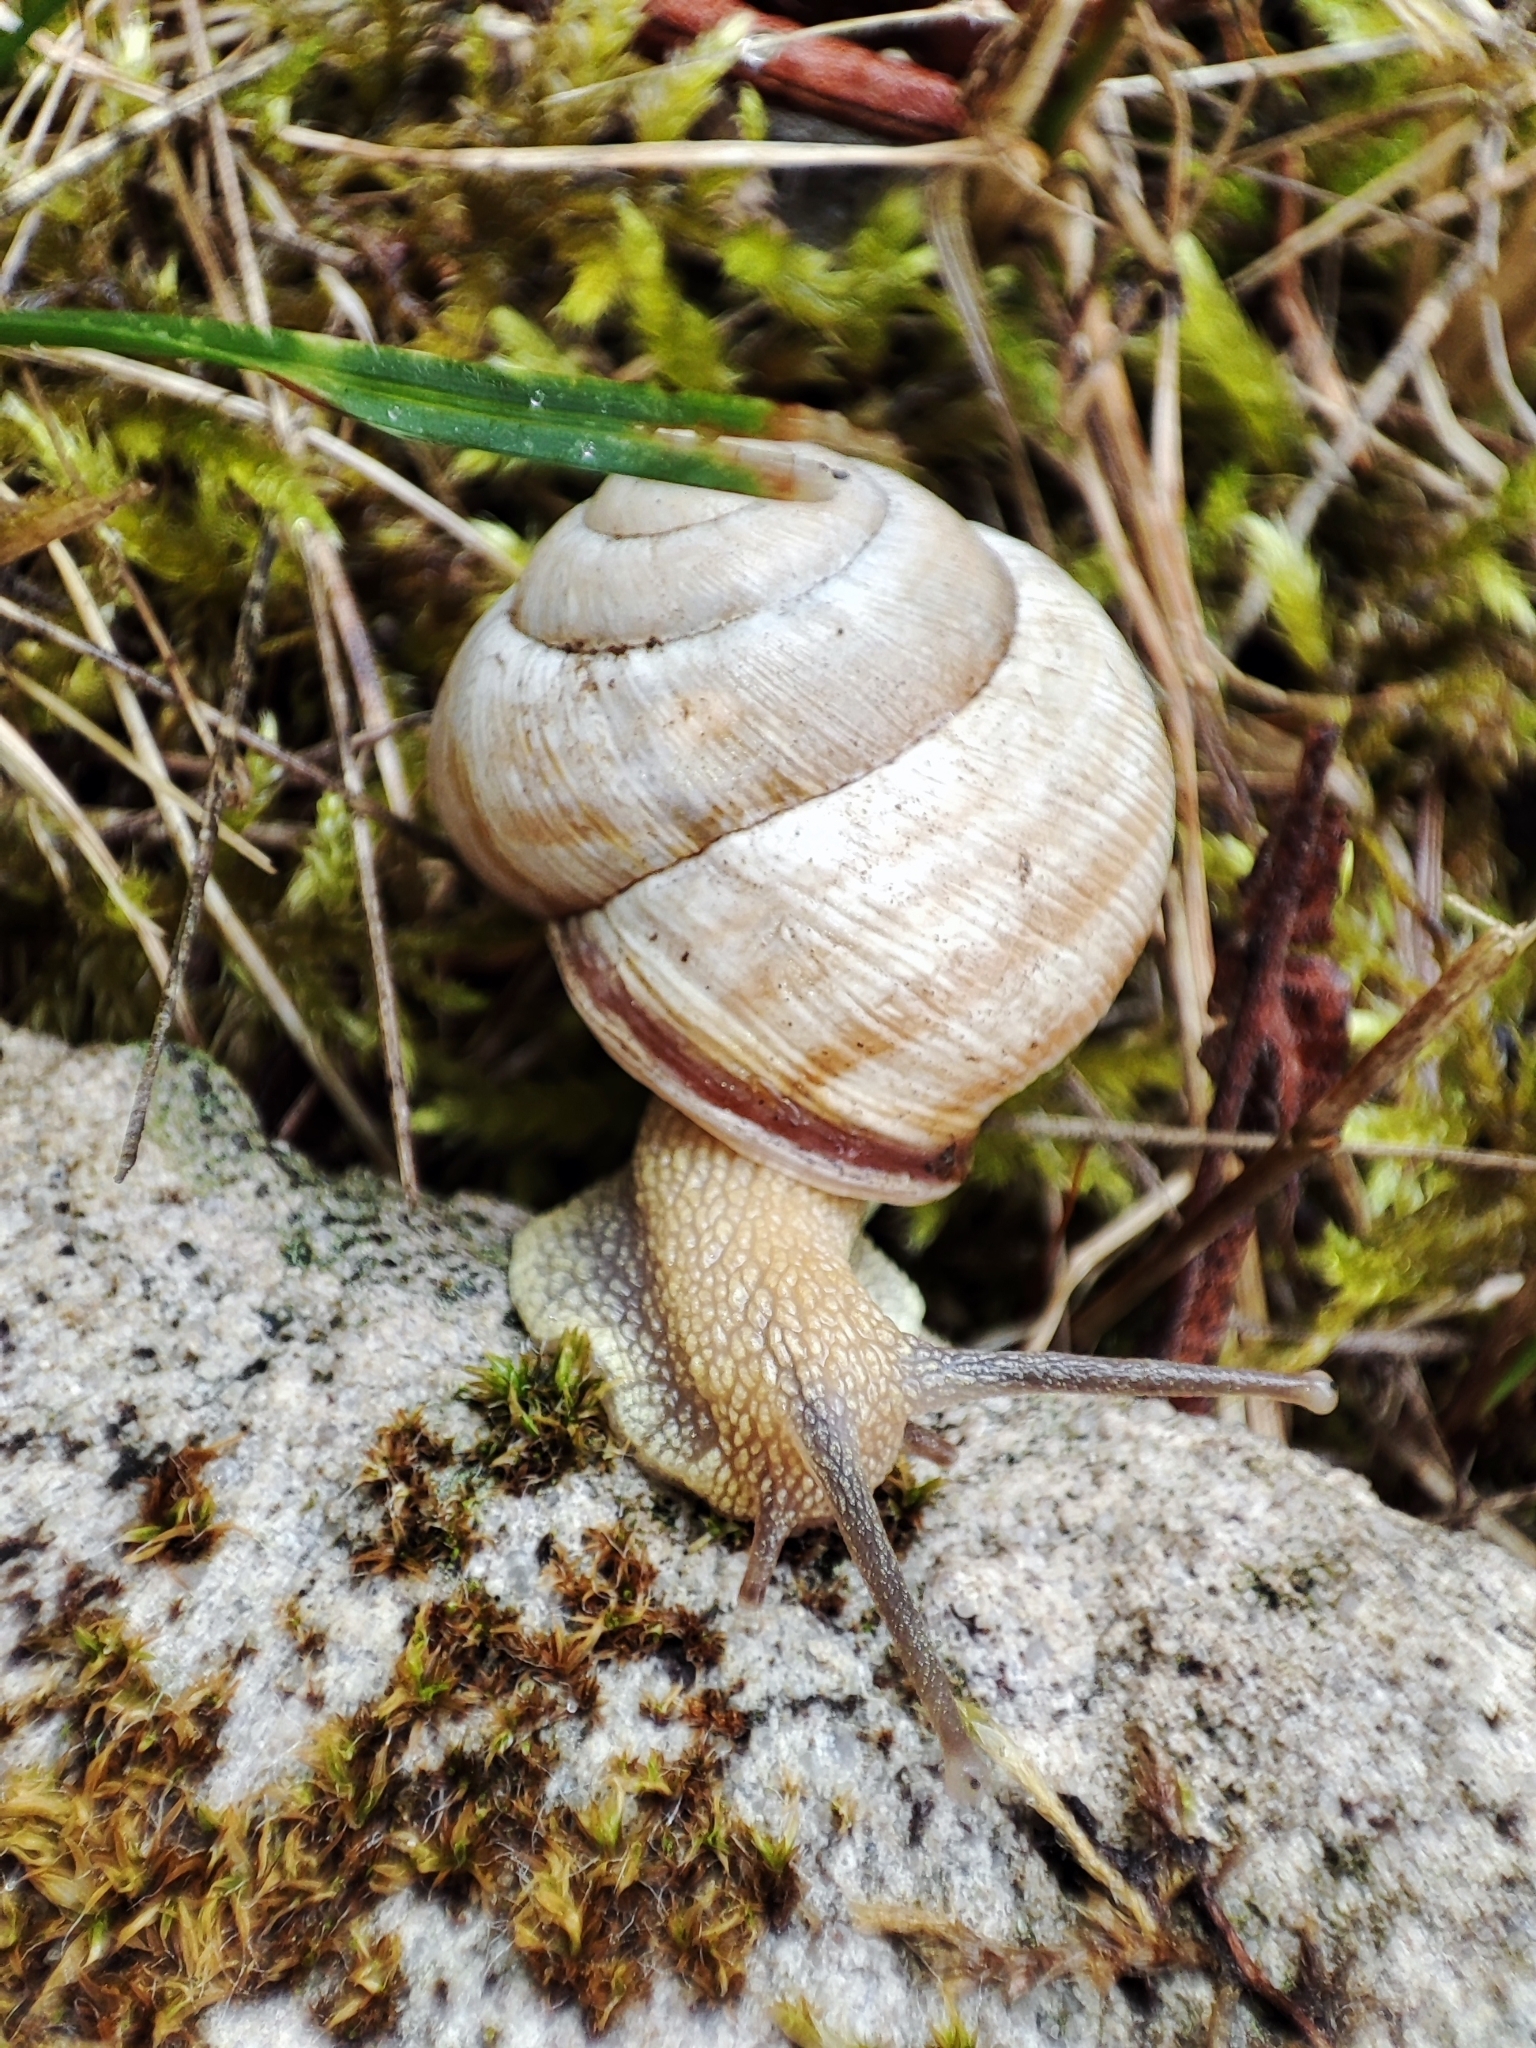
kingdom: Animalia
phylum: Mollusca
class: Gastropoda
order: Stylommatophora
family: Helicidae
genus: Caucasotachea
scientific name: Caucasotachea vindobonensis
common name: European helicid land snail
